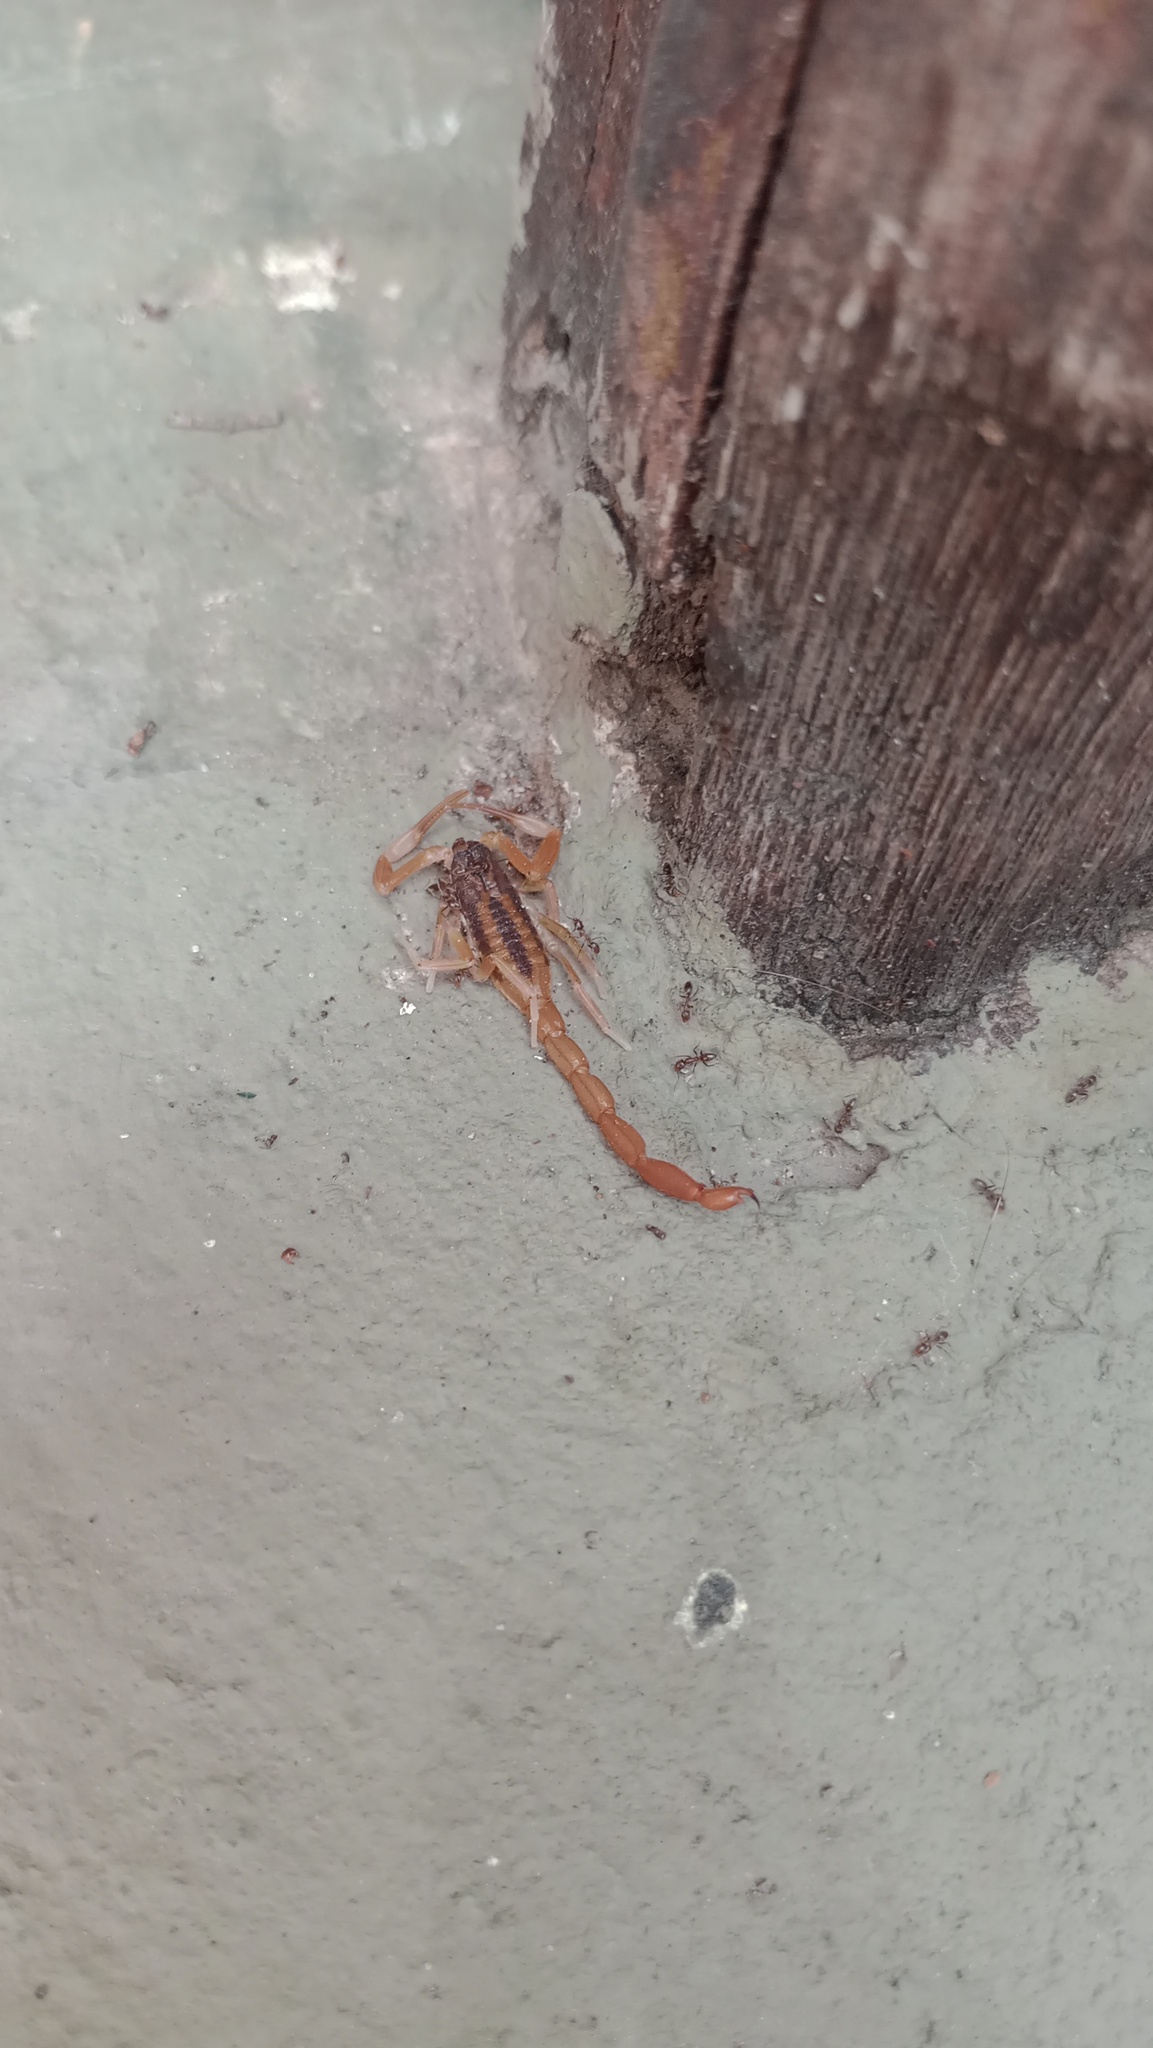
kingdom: Animalia
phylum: Arthropoda
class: Arachnida
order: Scorpiones
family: Buthidae
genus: Tityus
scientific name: Tityus carrilloi
